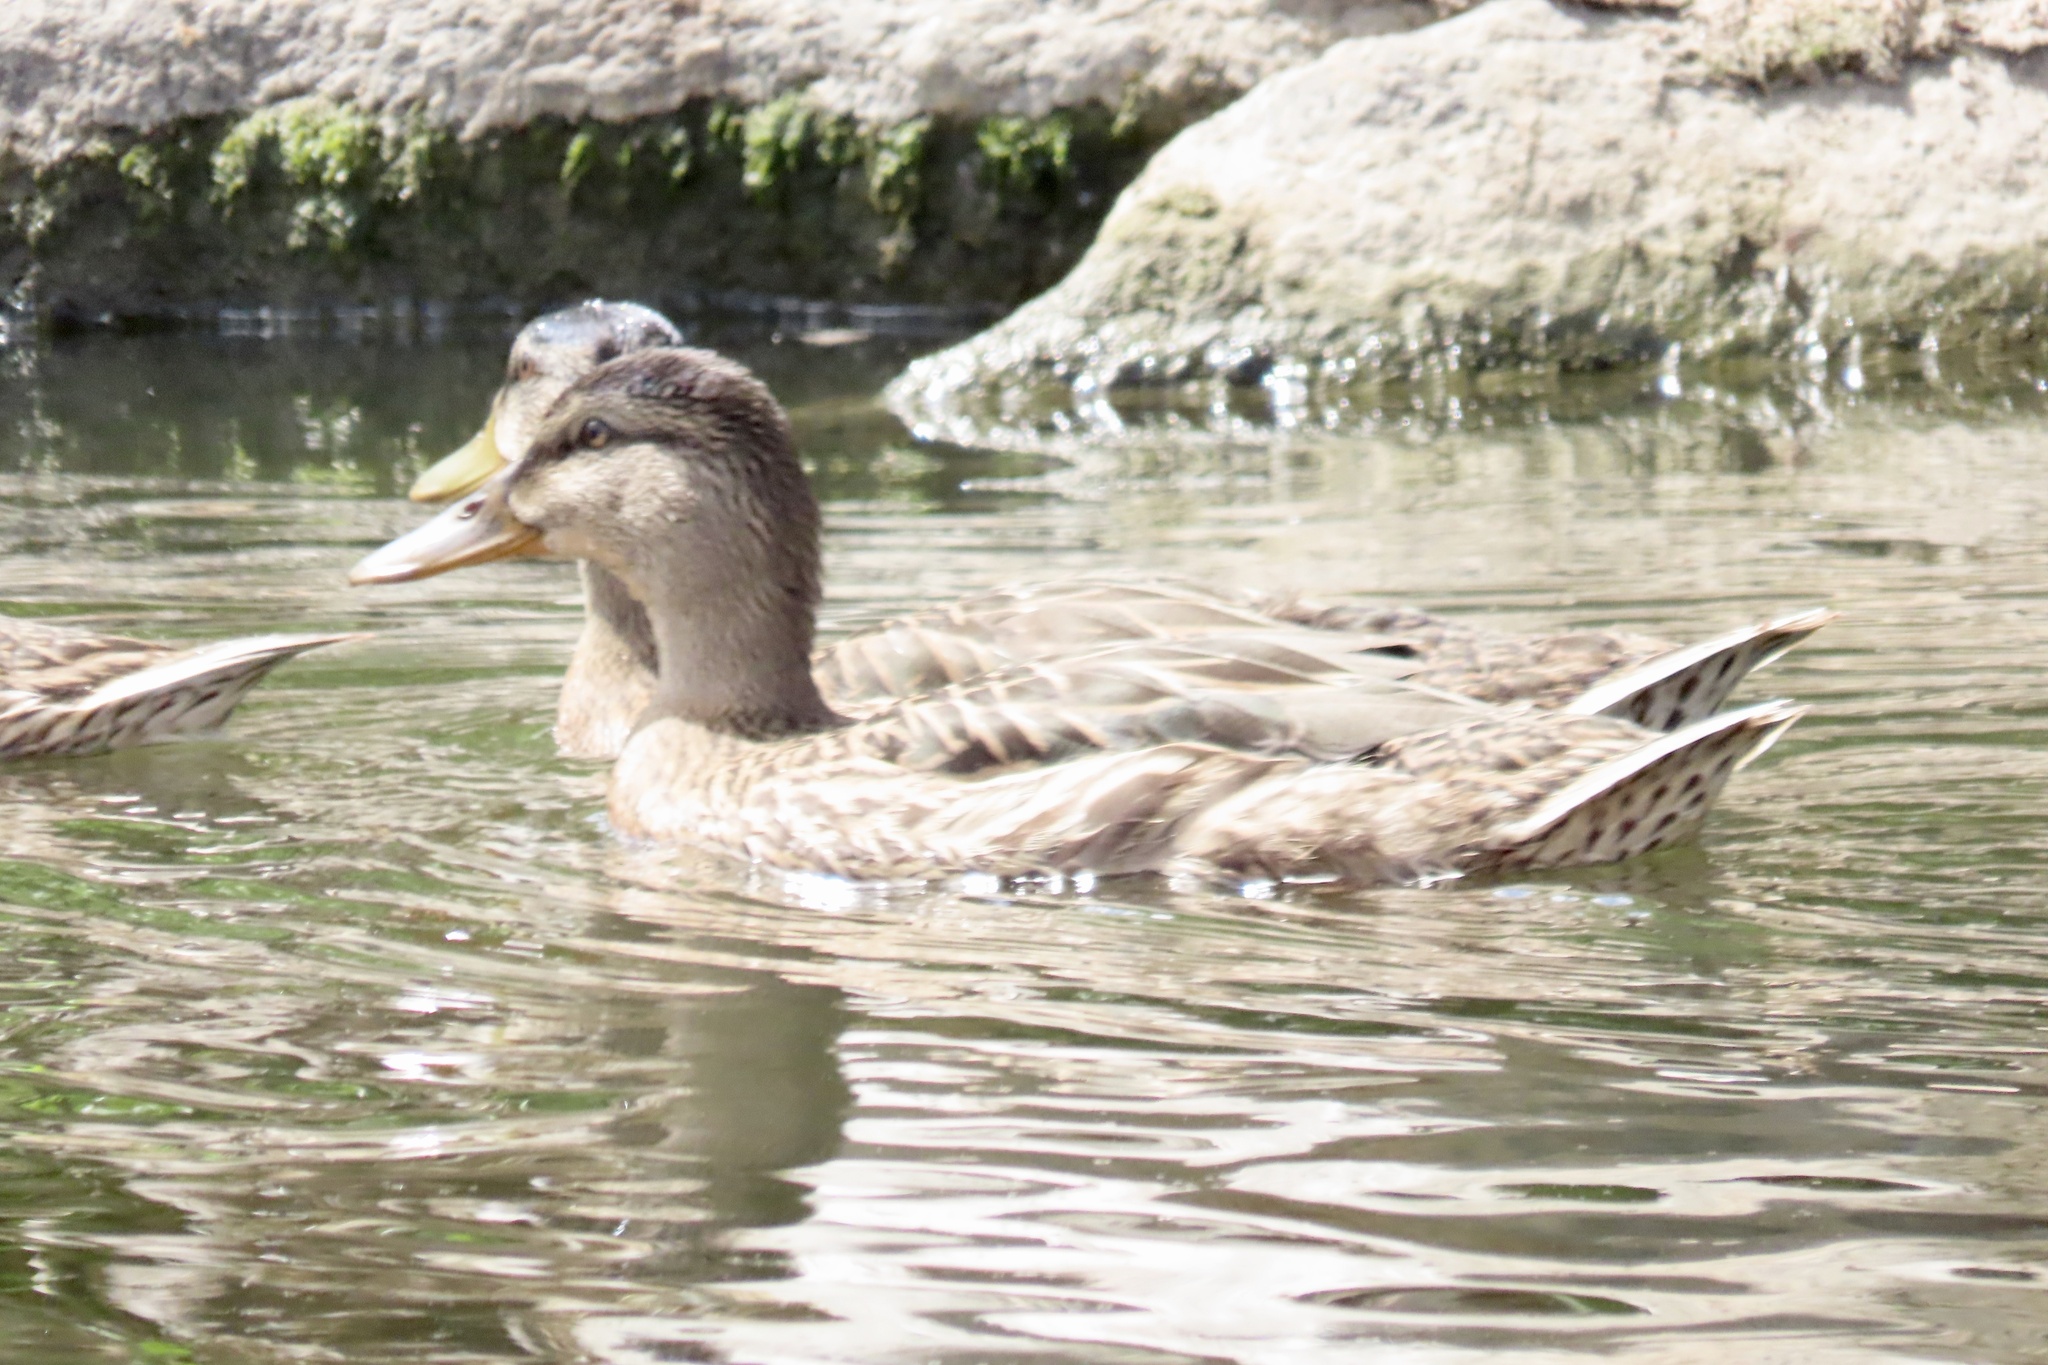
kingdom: Animalia
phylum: Chordata
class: Aves
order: Anseriformes
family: Anatidae
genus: Anas
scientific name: Anas platyrhynchos
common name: Mallard
